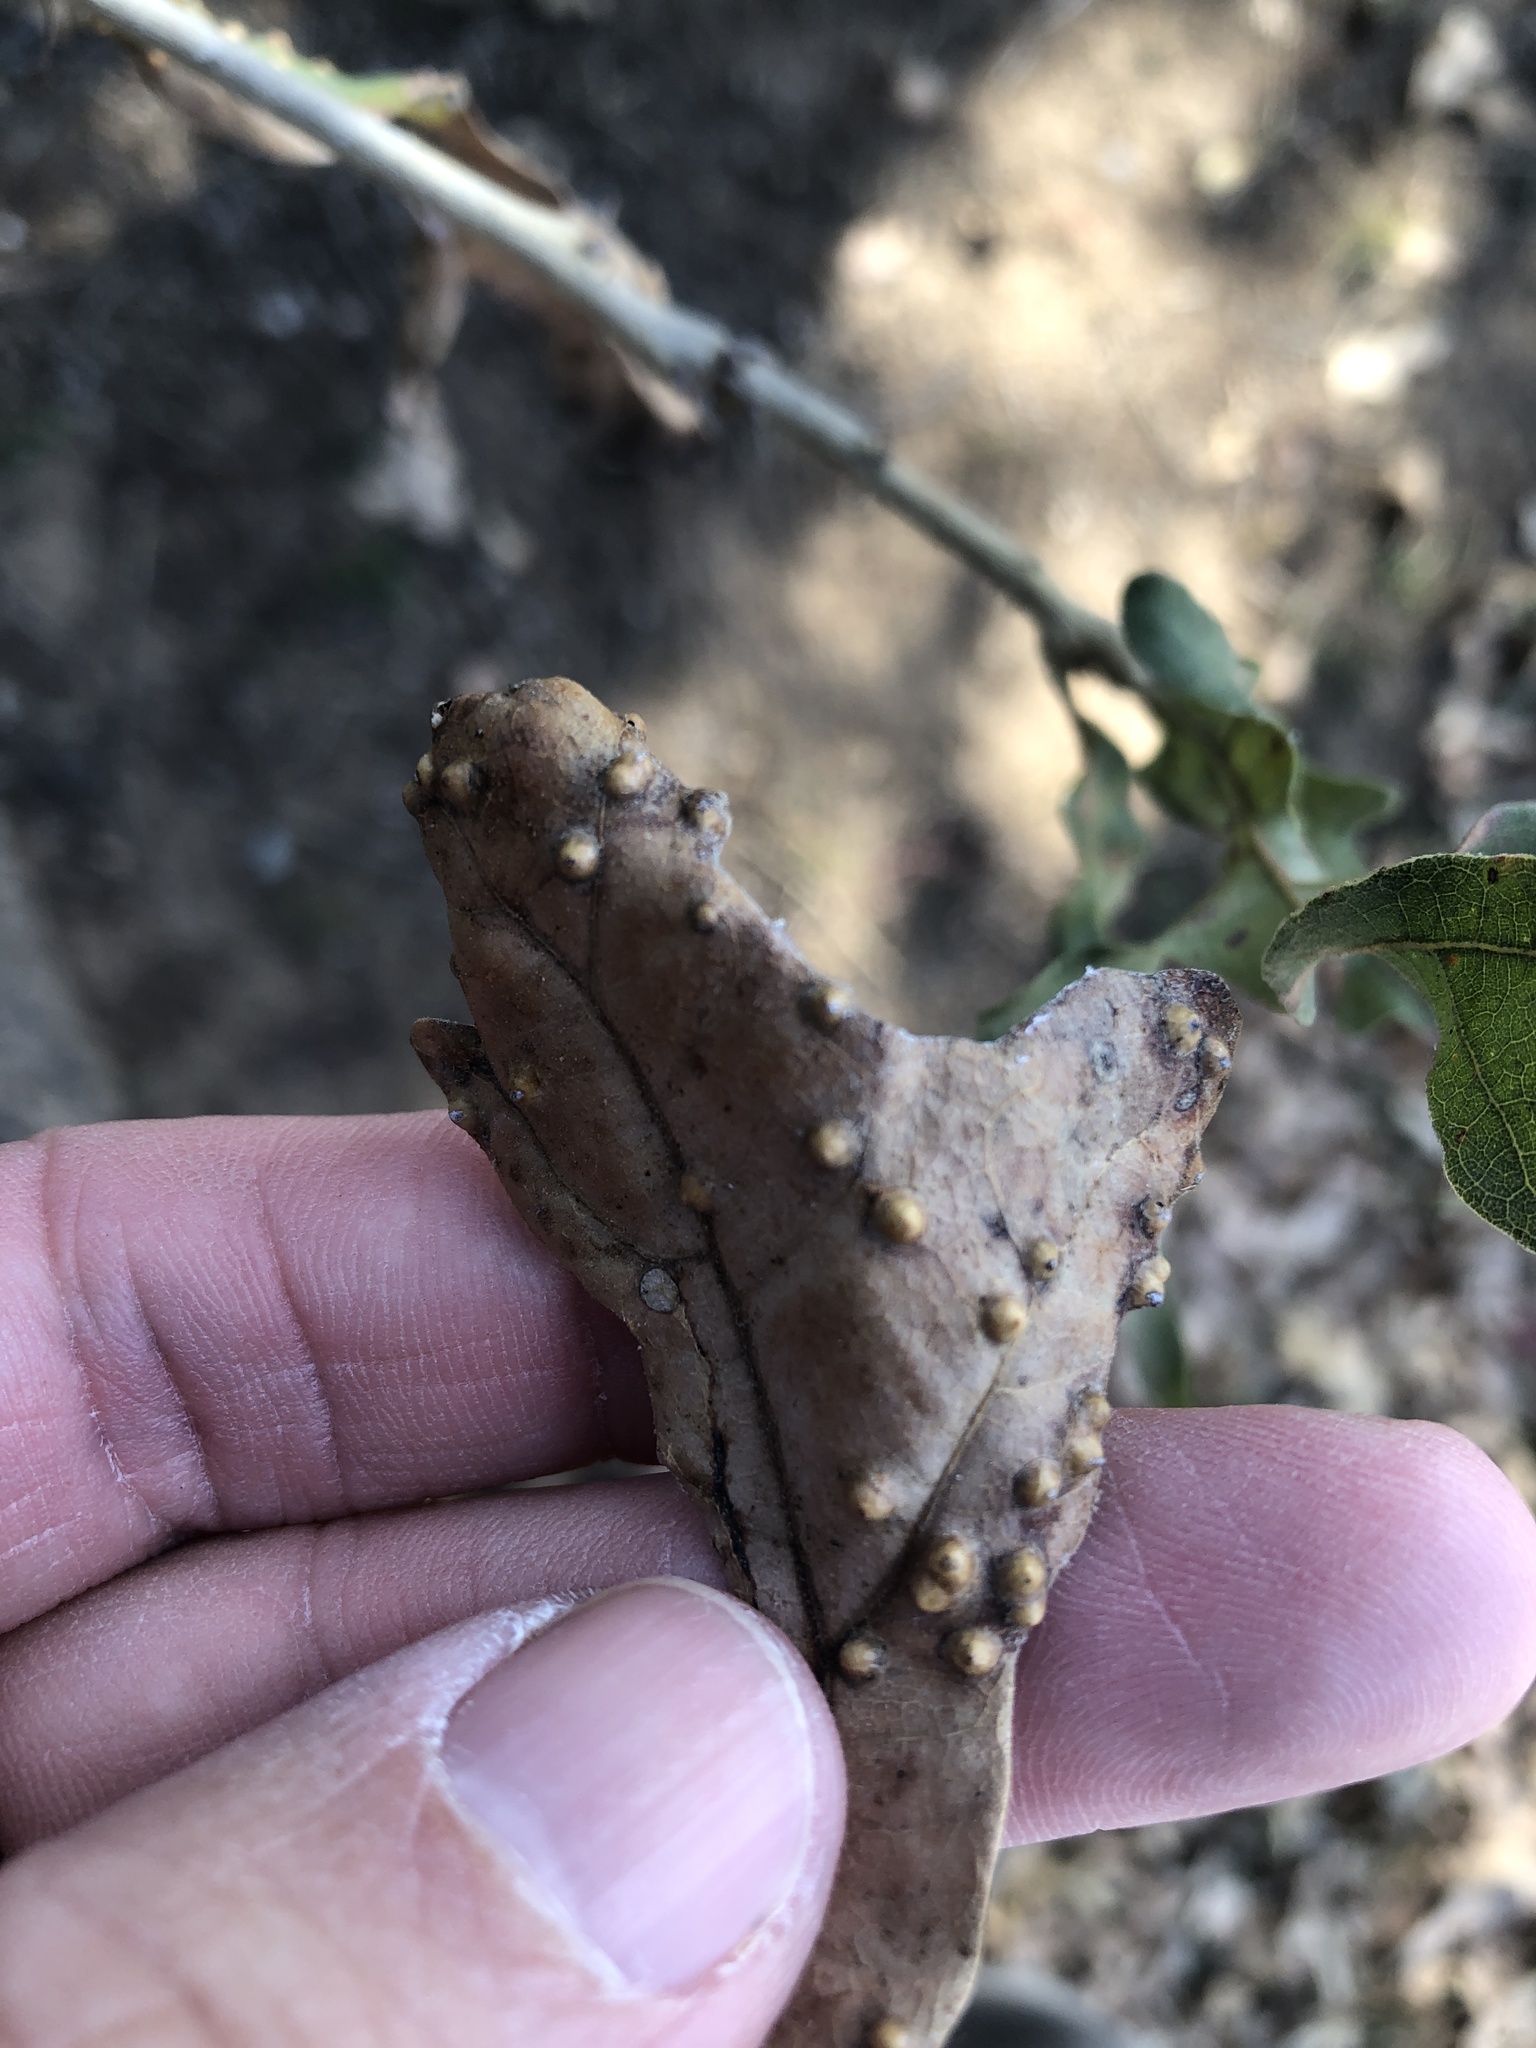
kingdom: Animalia
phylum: Arthropoda
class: Insecta
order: Hymenoptera
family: Cynipidae
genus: Neuroterus
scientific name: Neuroterus quercusverrucarum
